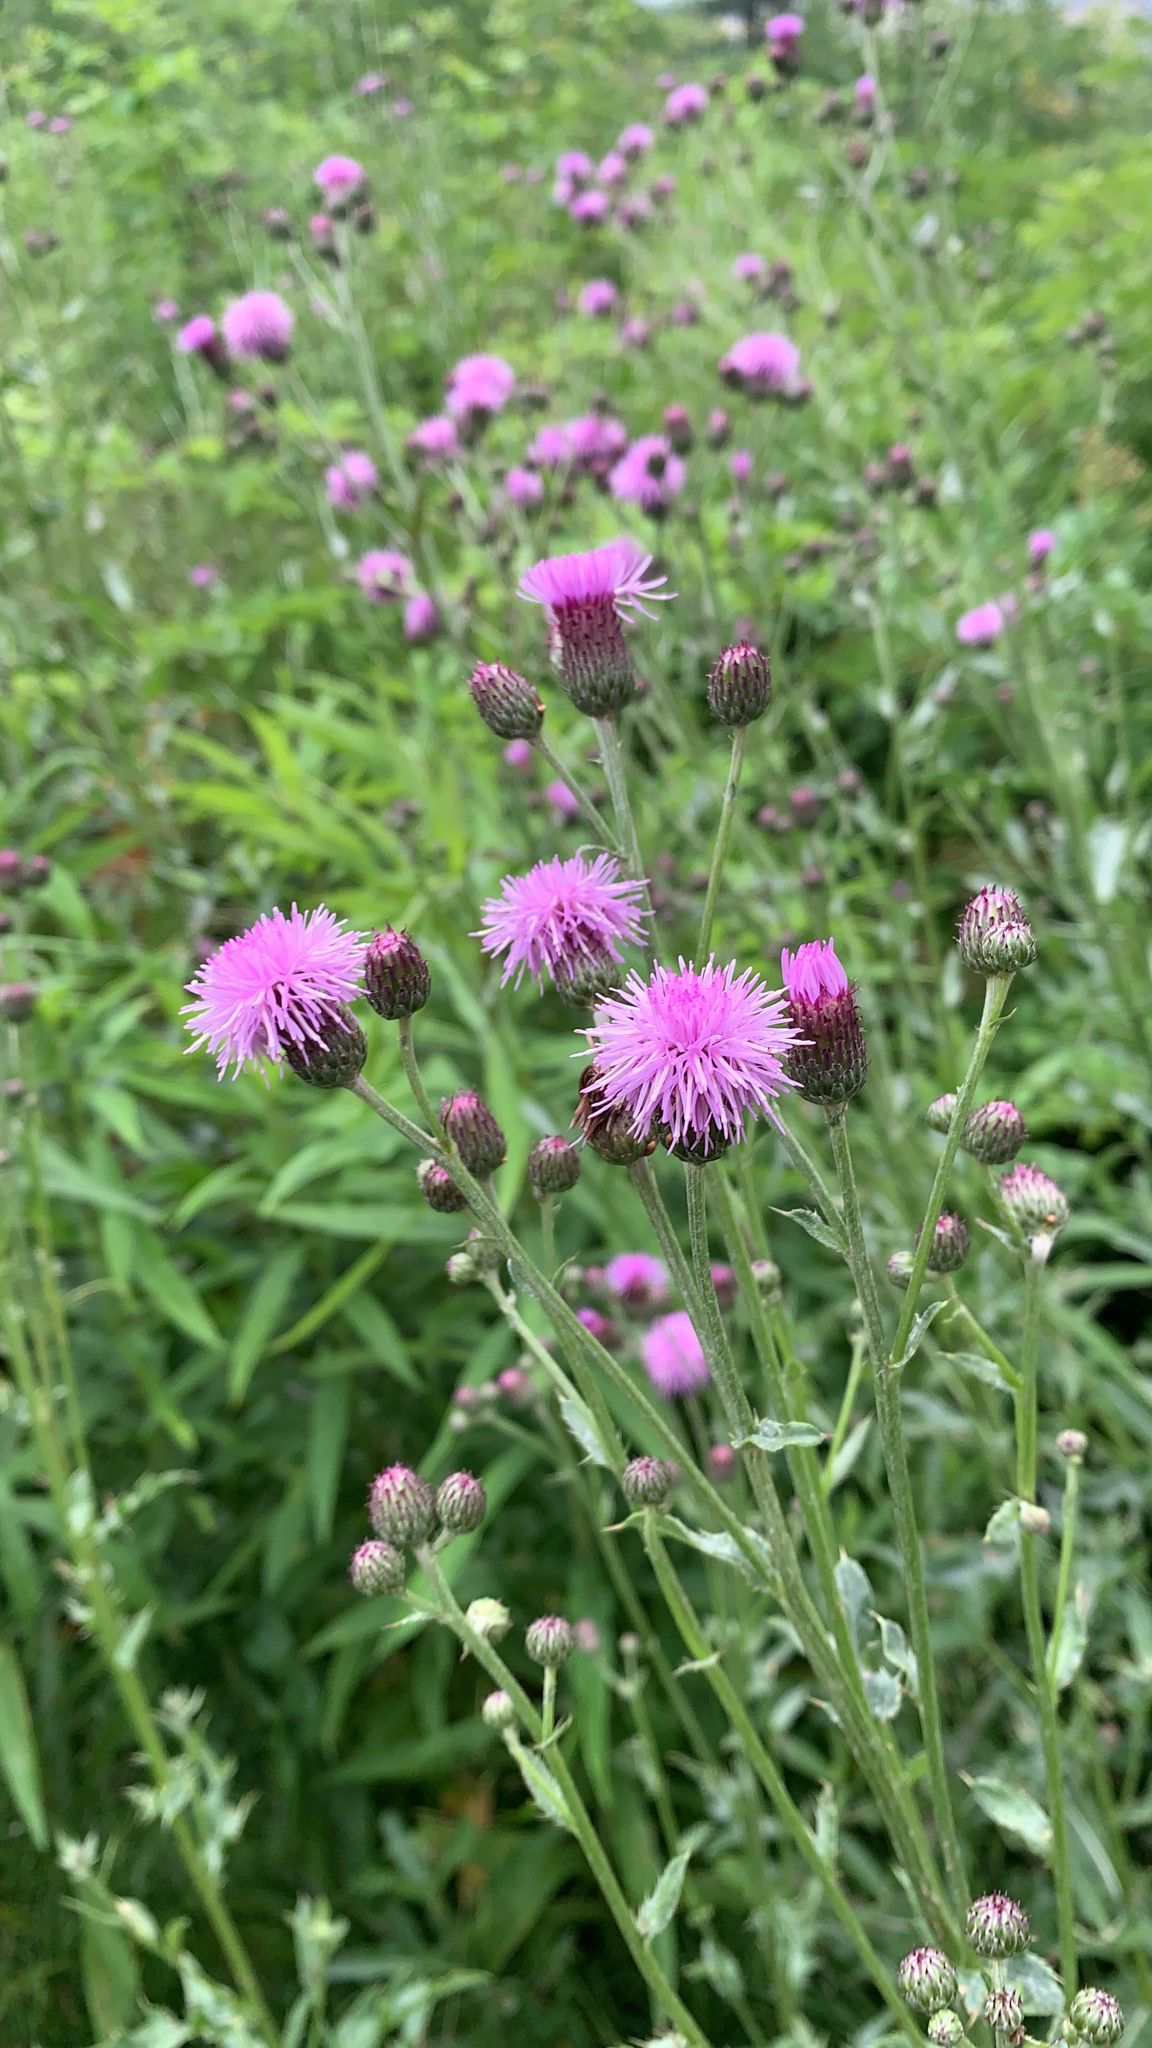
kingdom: Plantae
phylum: Tracheophyta
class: Magnoliopsida
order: Asterales
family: Asteraceae
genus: Cirsium
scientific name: Cirsium arvense
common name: Creeping thistle
